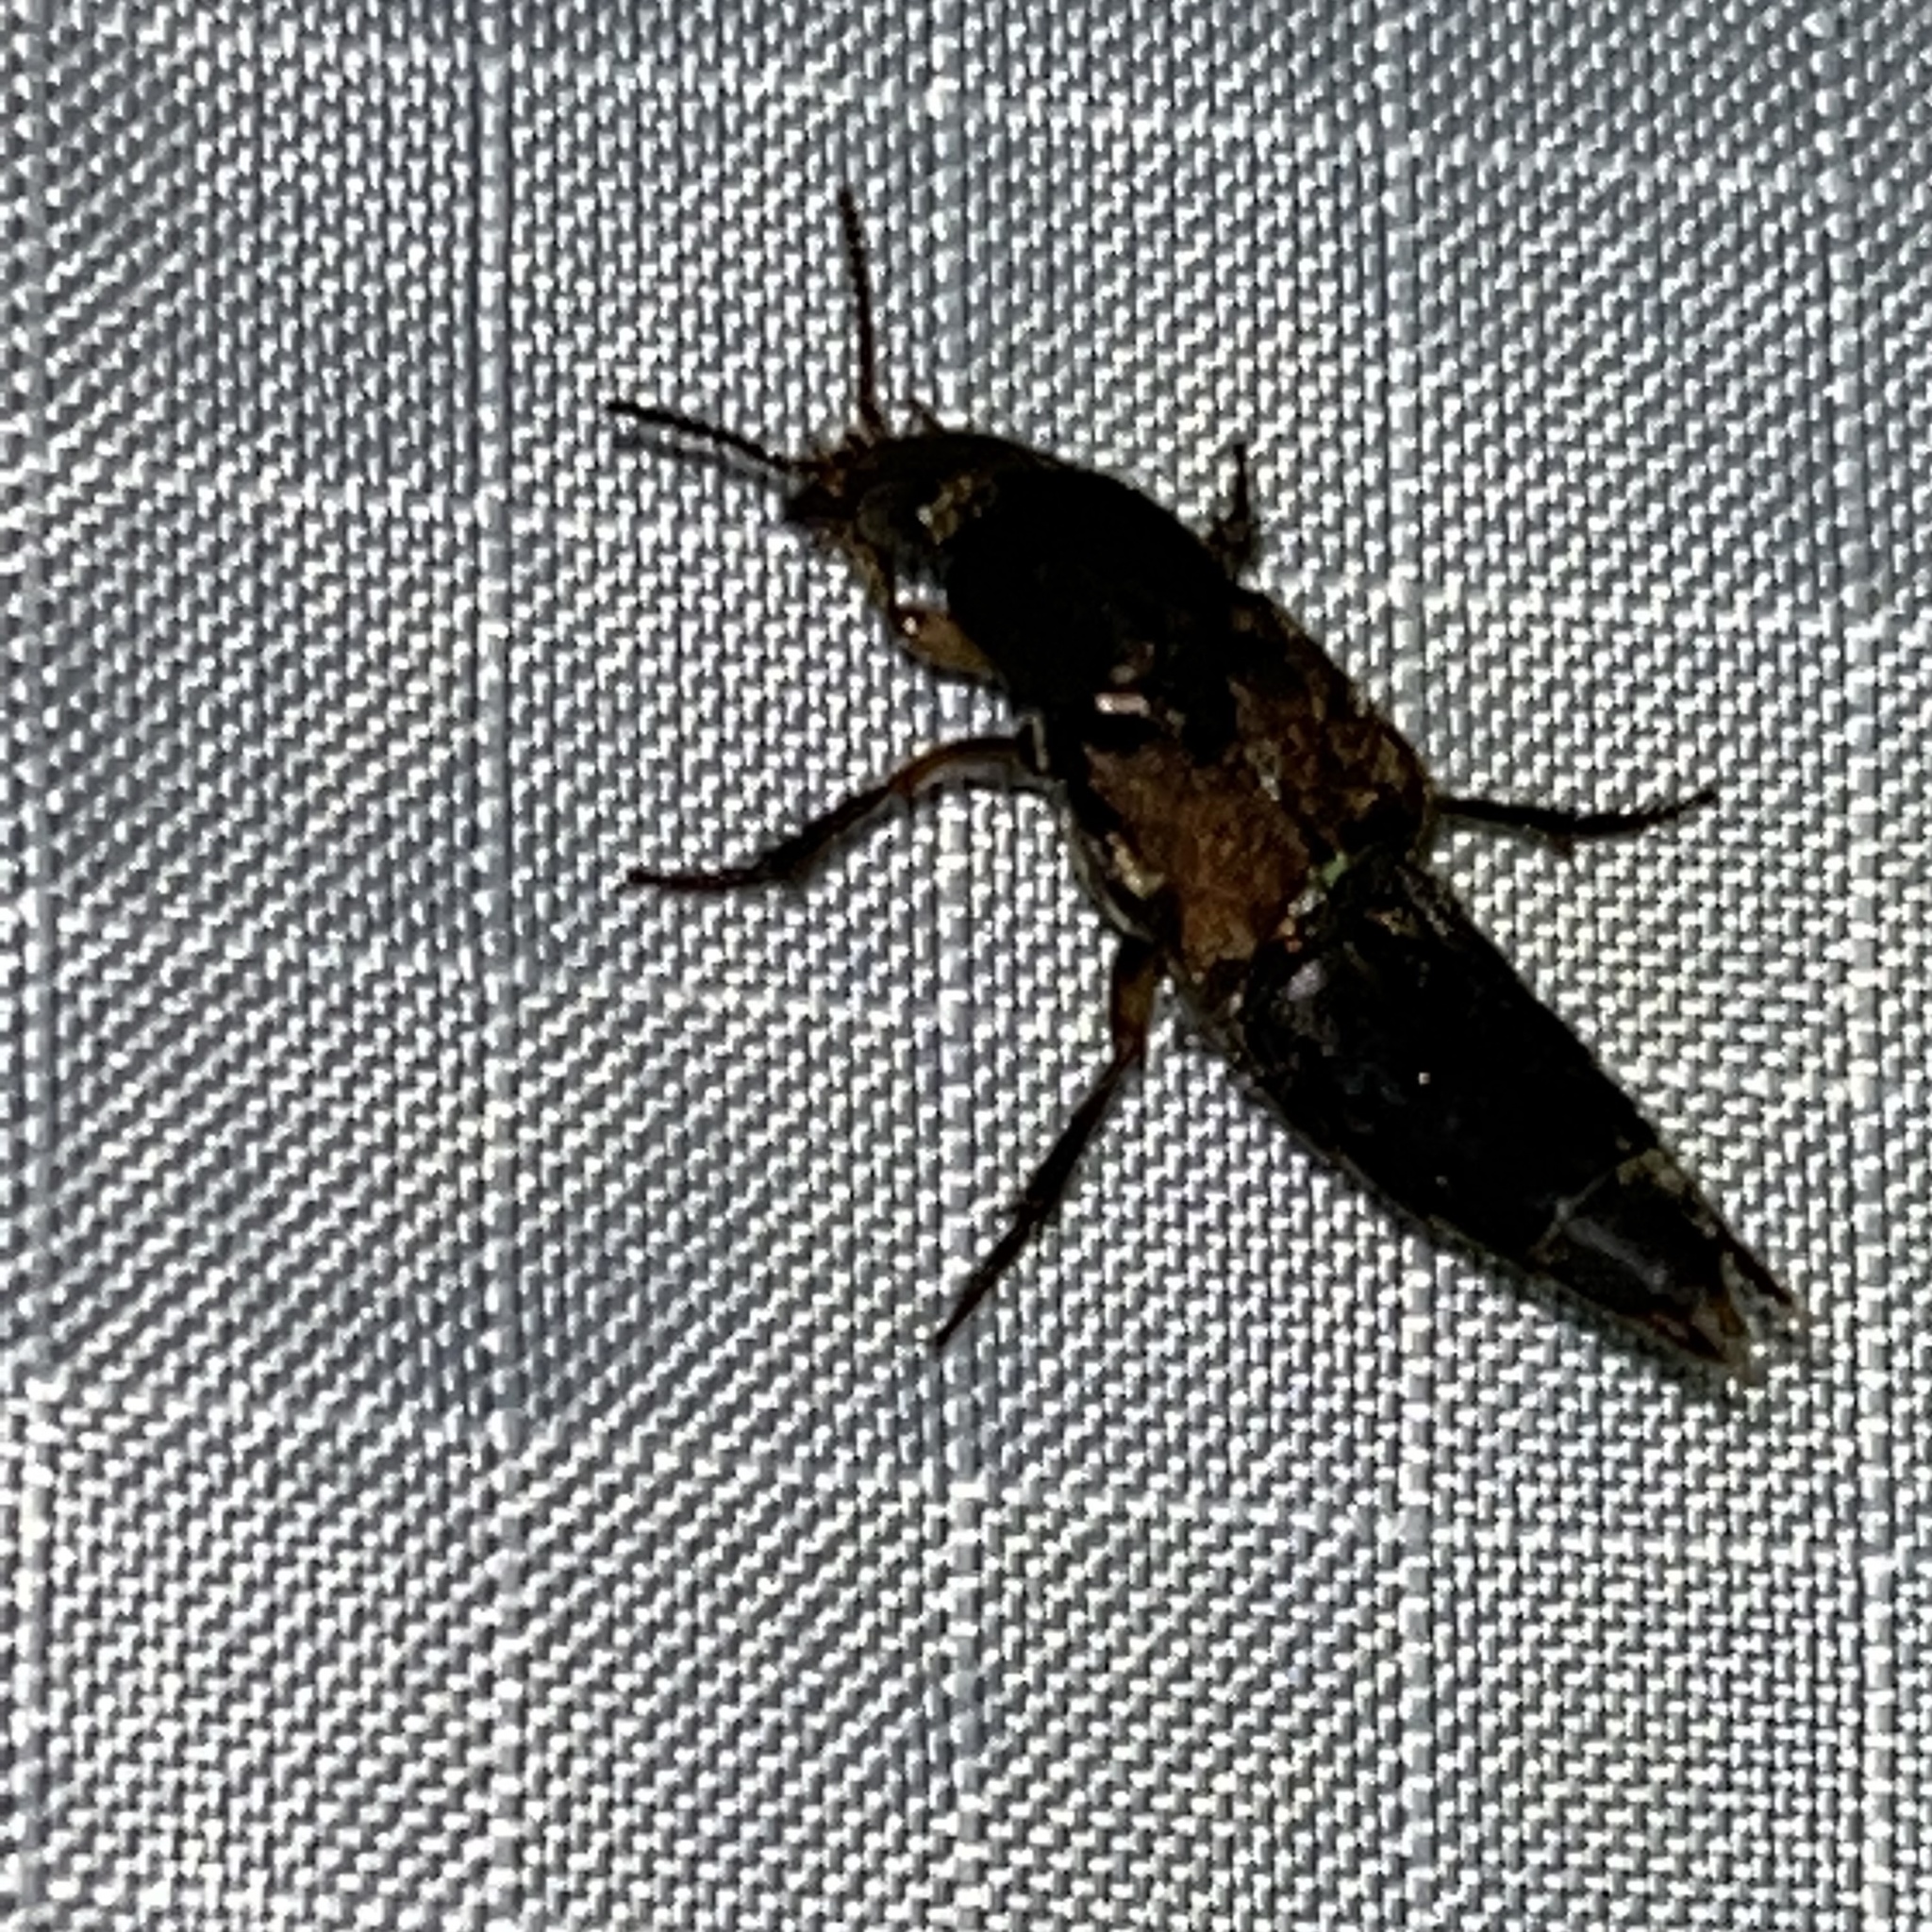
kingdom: Animalia
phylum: Arthropoda
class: Insecta
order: Coleoptera
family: Staphylinidae
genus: Platydracus
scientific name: Platydracus femoratus
